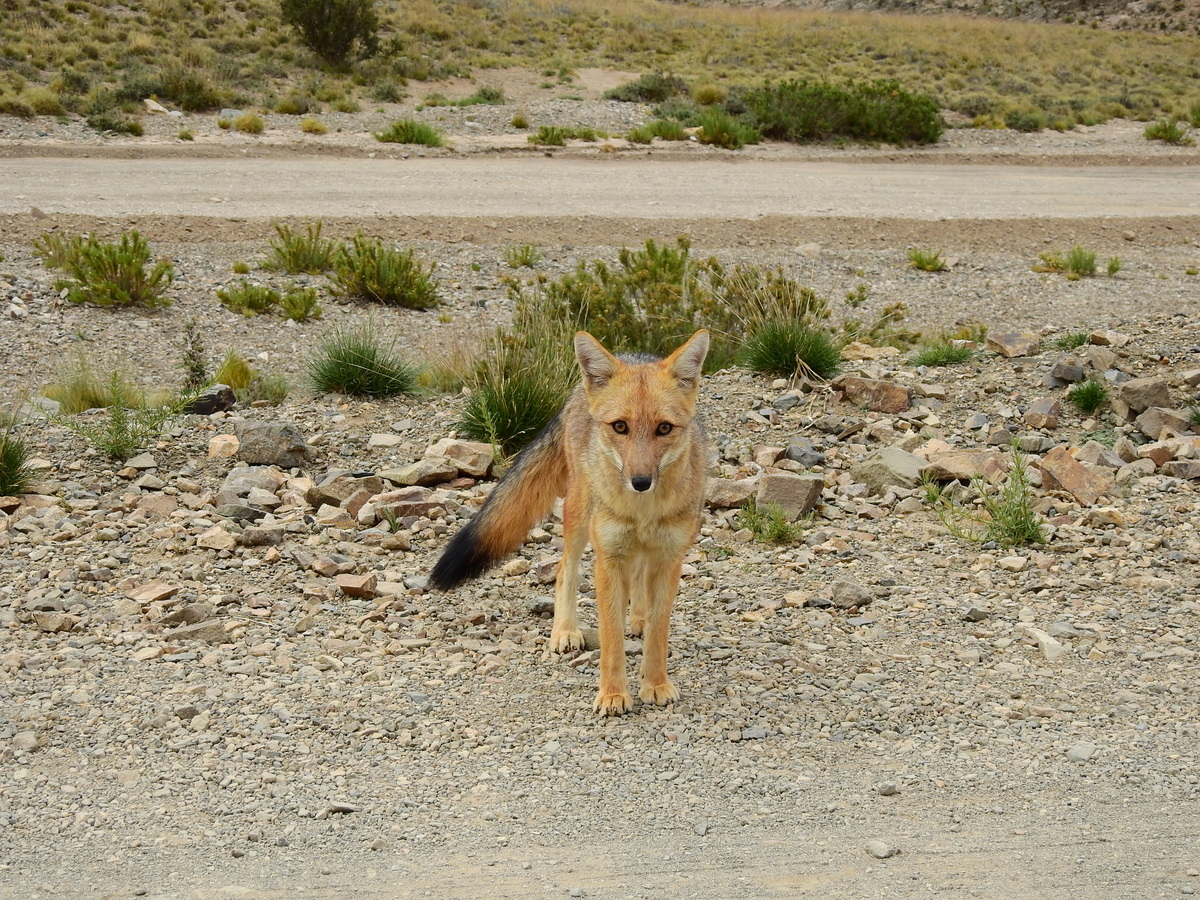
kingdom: Animalia
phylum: Chordata
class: Mammalia
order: Carnivora
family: Canidae
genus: Lycalopex
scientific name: Lycalopex culpaeus
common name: Culpeo
